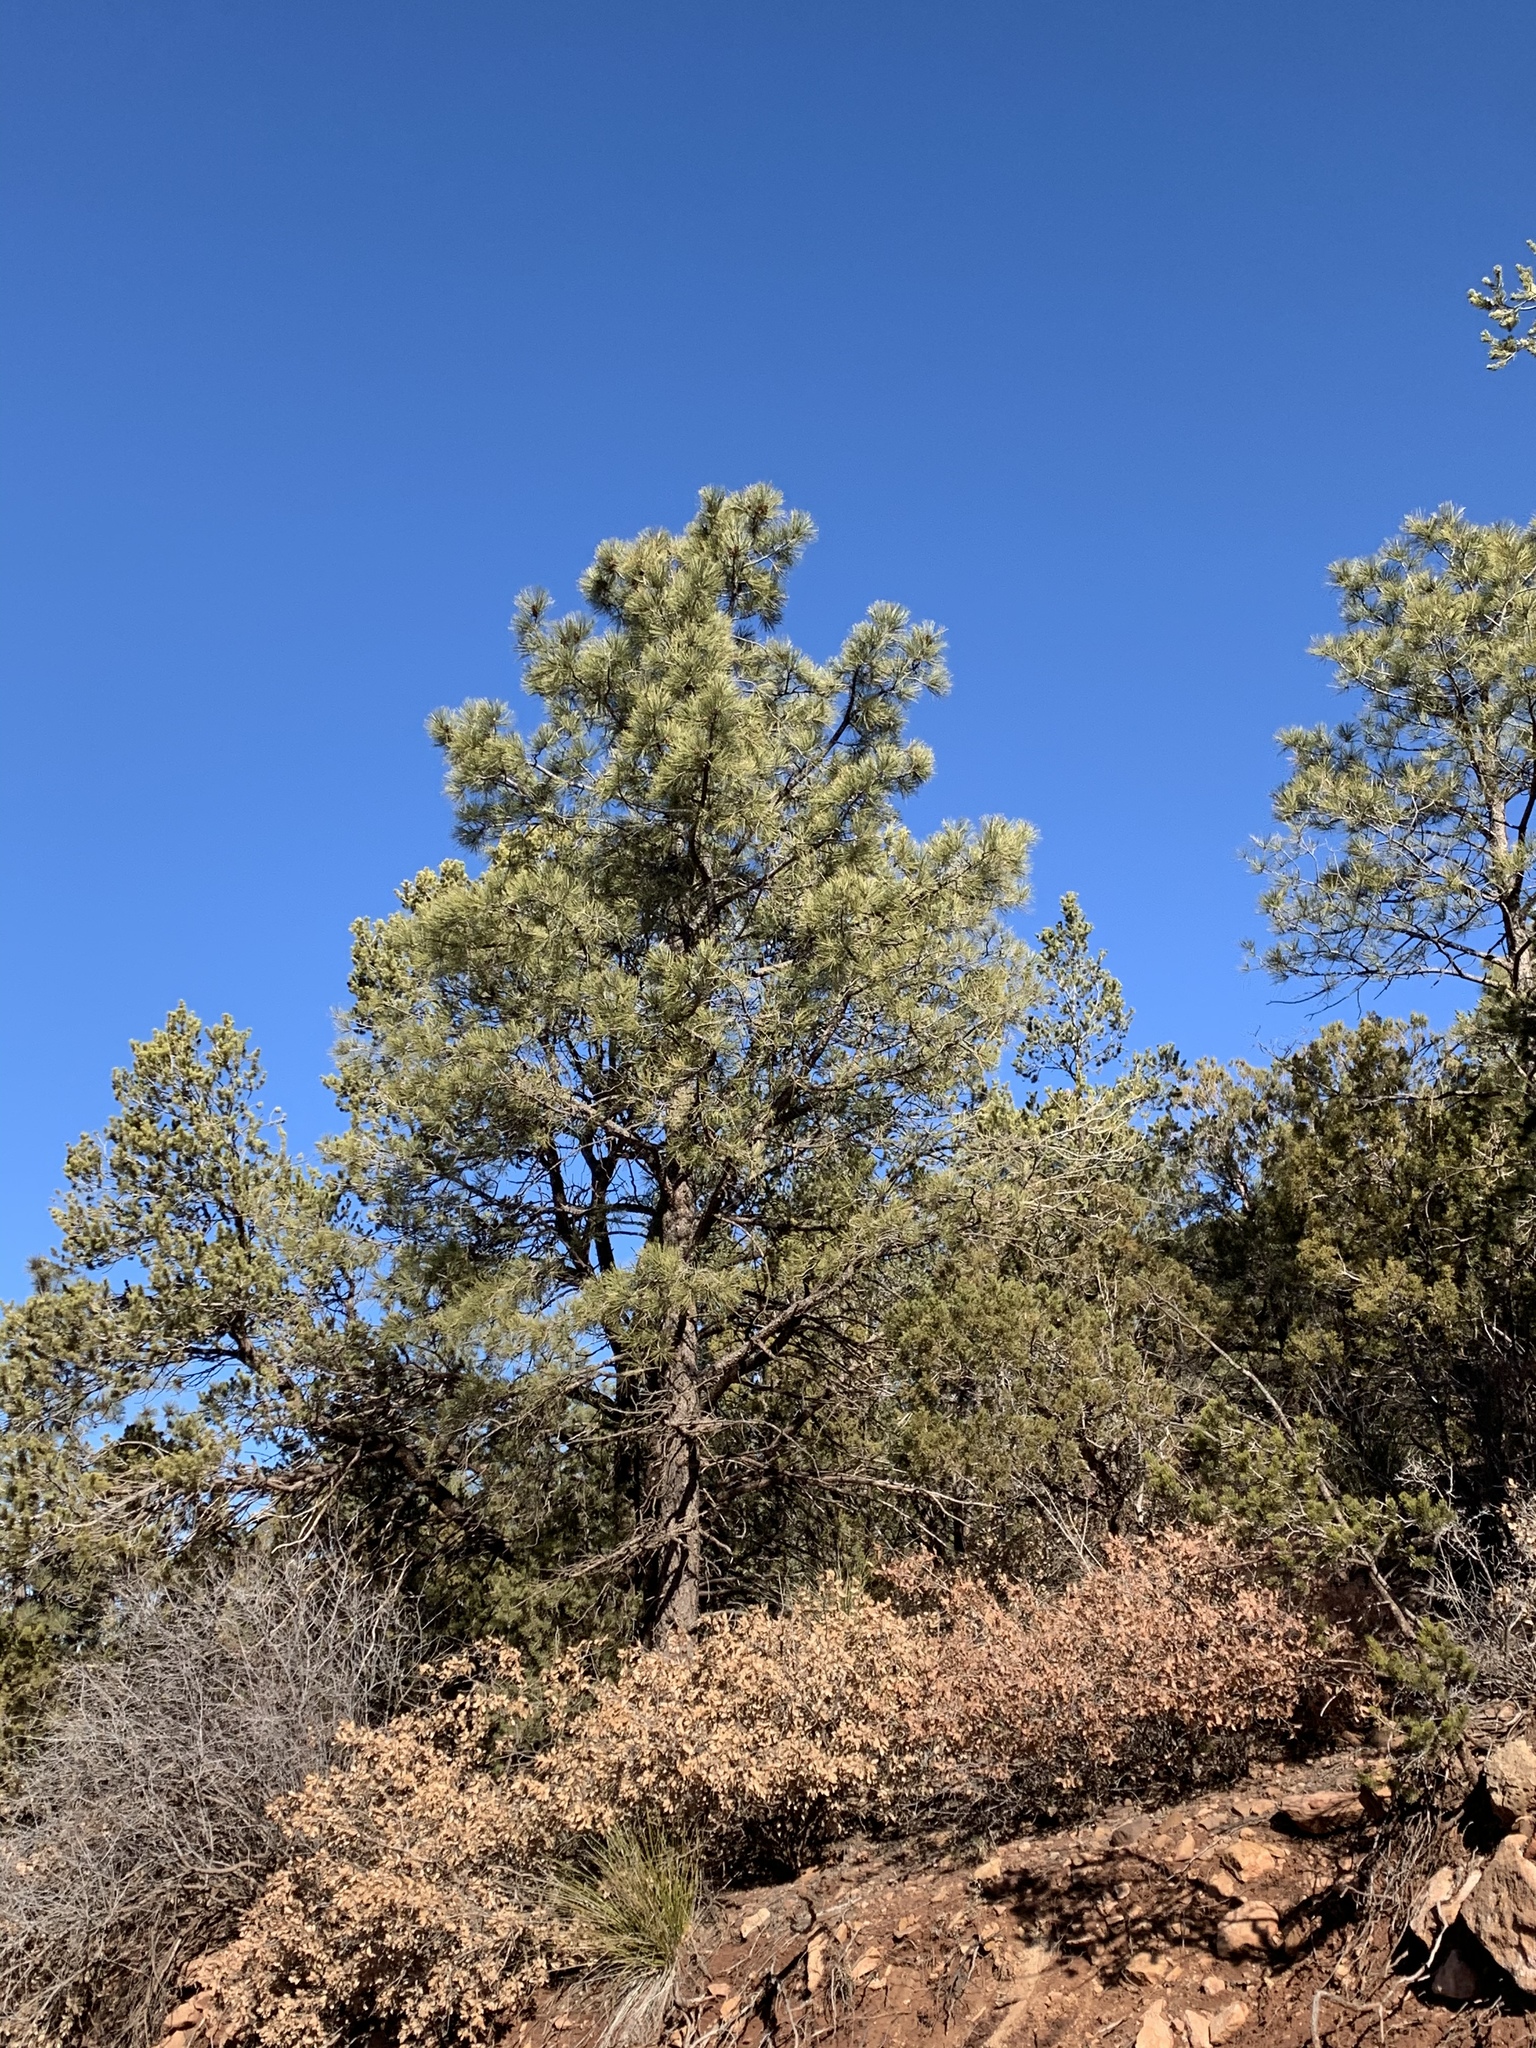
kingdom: Plantae
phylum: Tracheophyta
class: Pinopsida
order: Pinales
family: Pinaceae
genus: Pinus
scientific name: Pinus ponderosa
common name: Western yellow-pine
